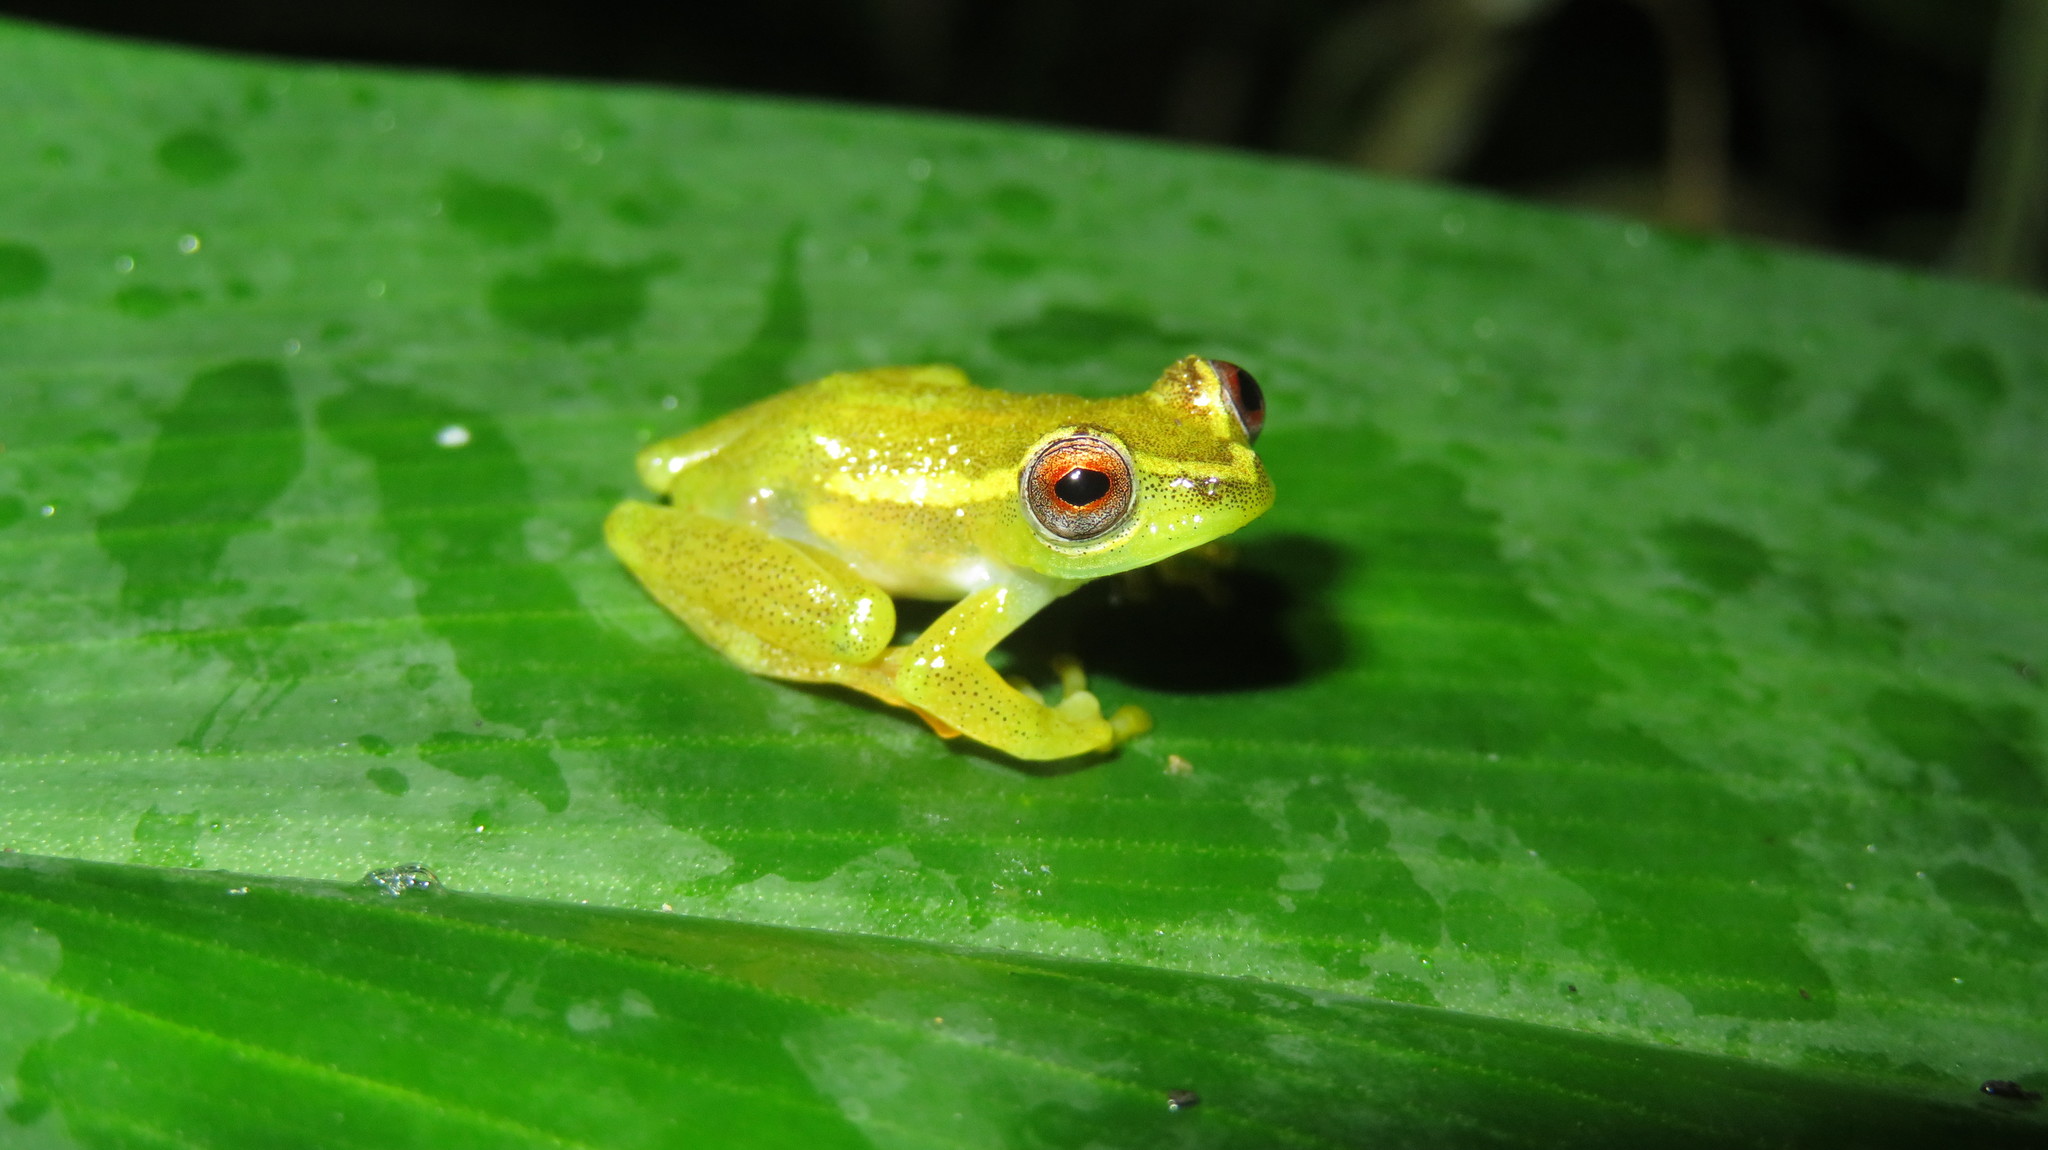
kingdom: Animalia
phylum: Chordata
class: Amphibia
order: Anura
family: Hyperoliidae
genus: Hyperolius
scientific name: Hyperolius burgessi
